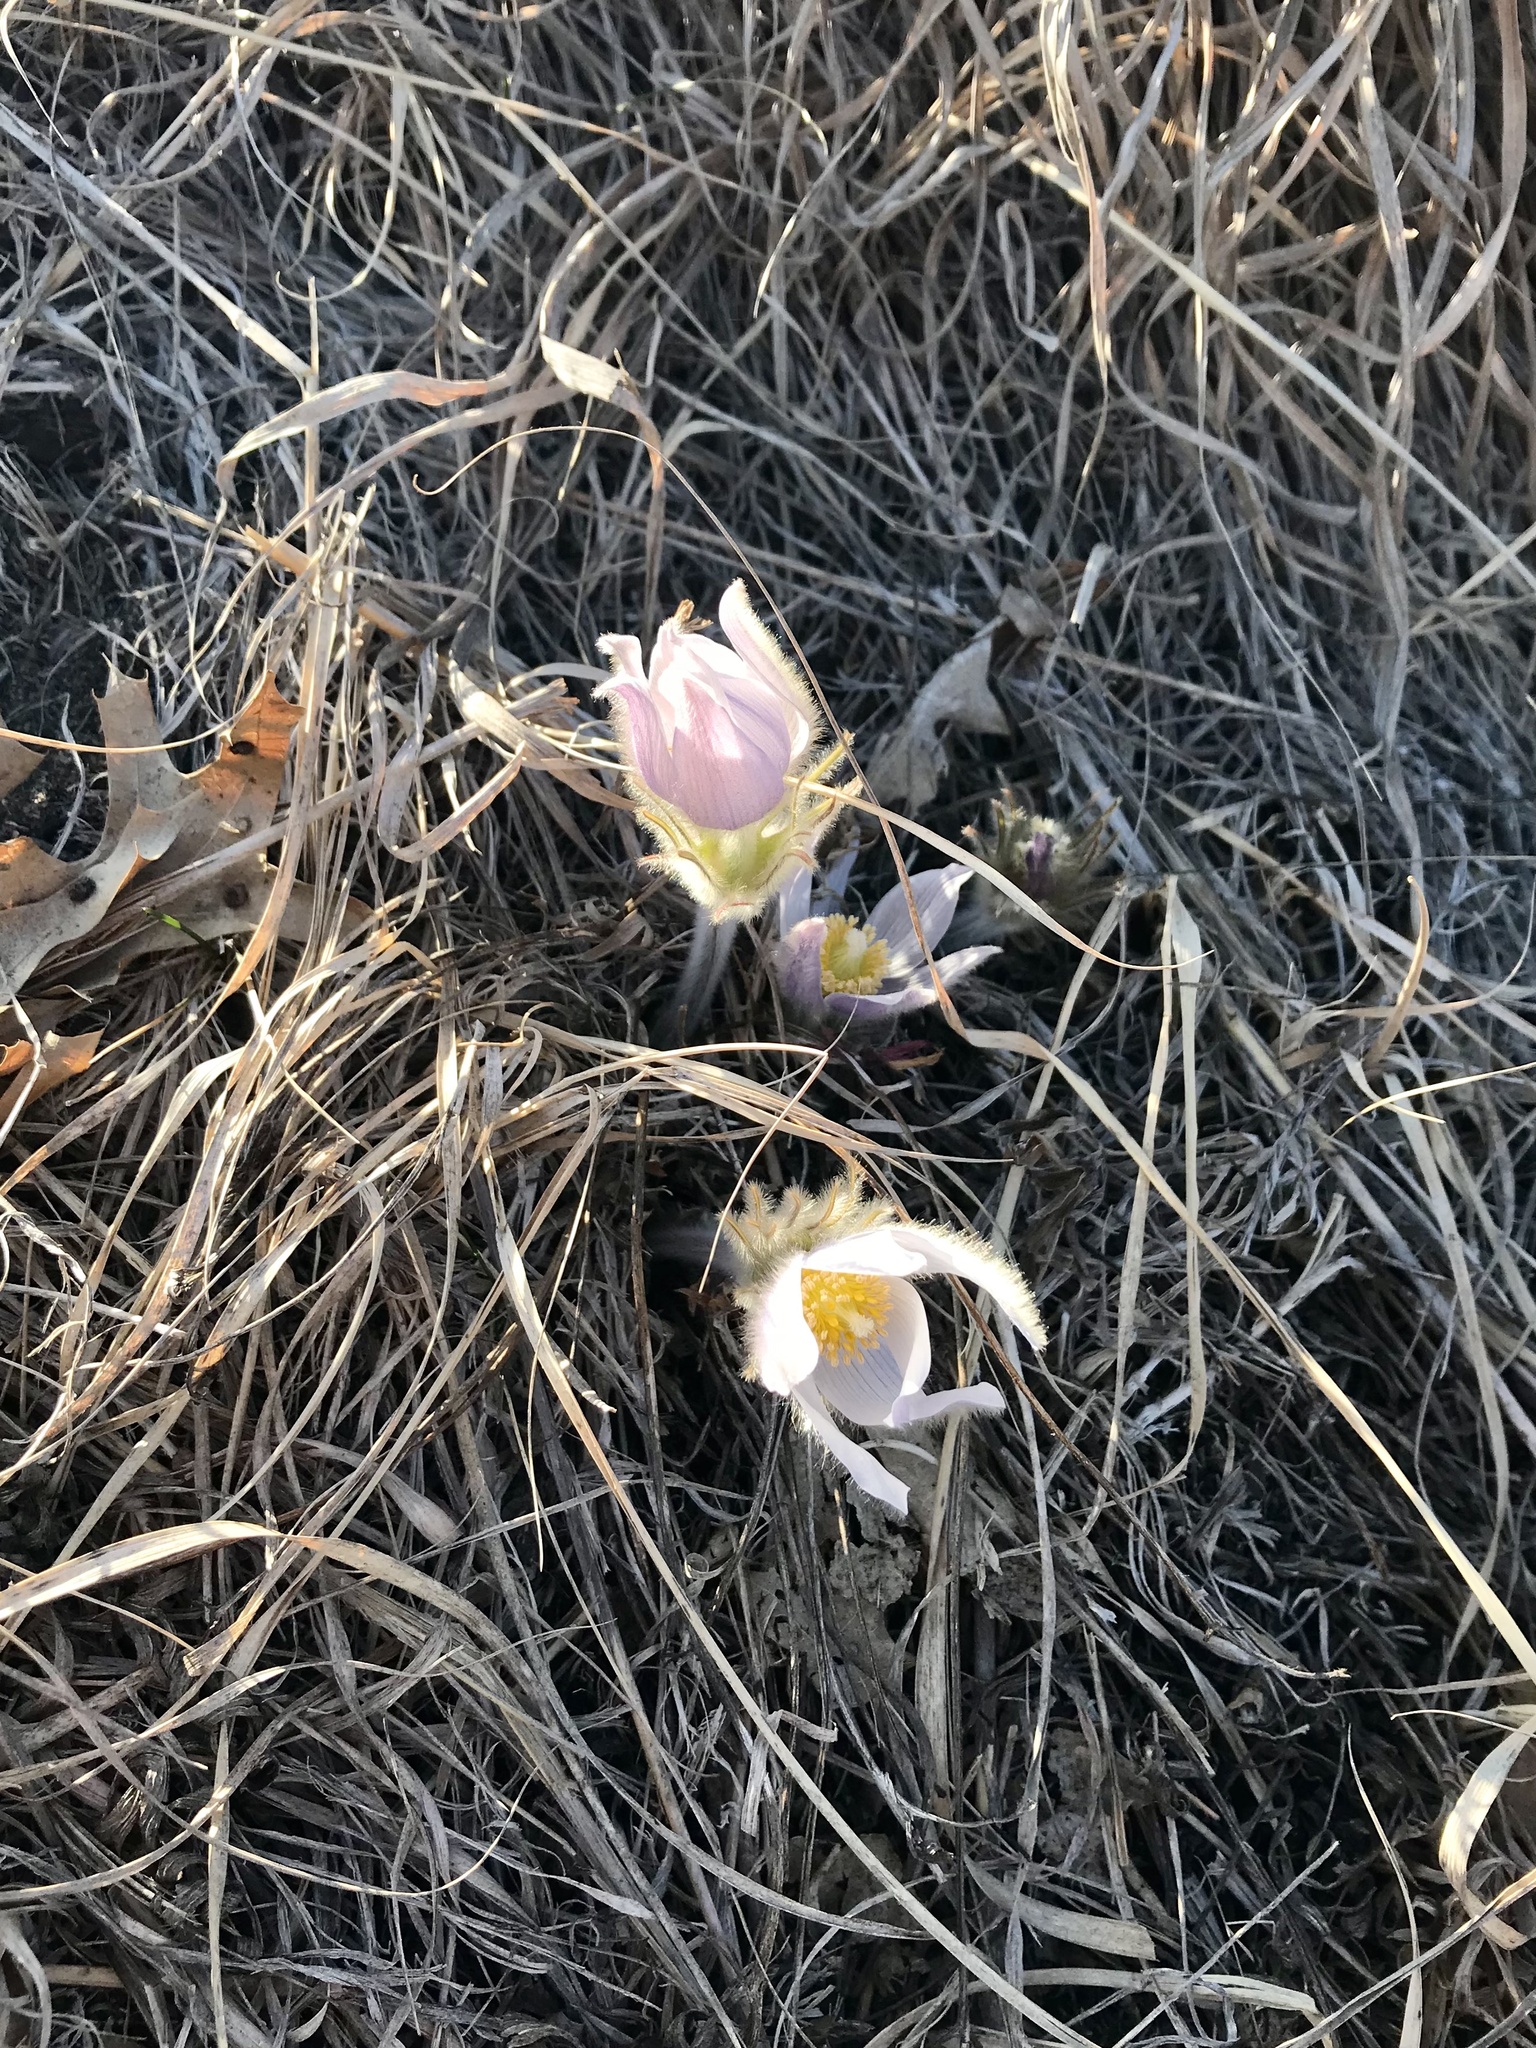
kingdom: Plantae
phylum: Tracheophyta
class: Magnoliopsida
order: Ranunculales
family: Ranunculaceae
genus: Pulsatilla
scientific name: Pulsatilla nuttalliana
